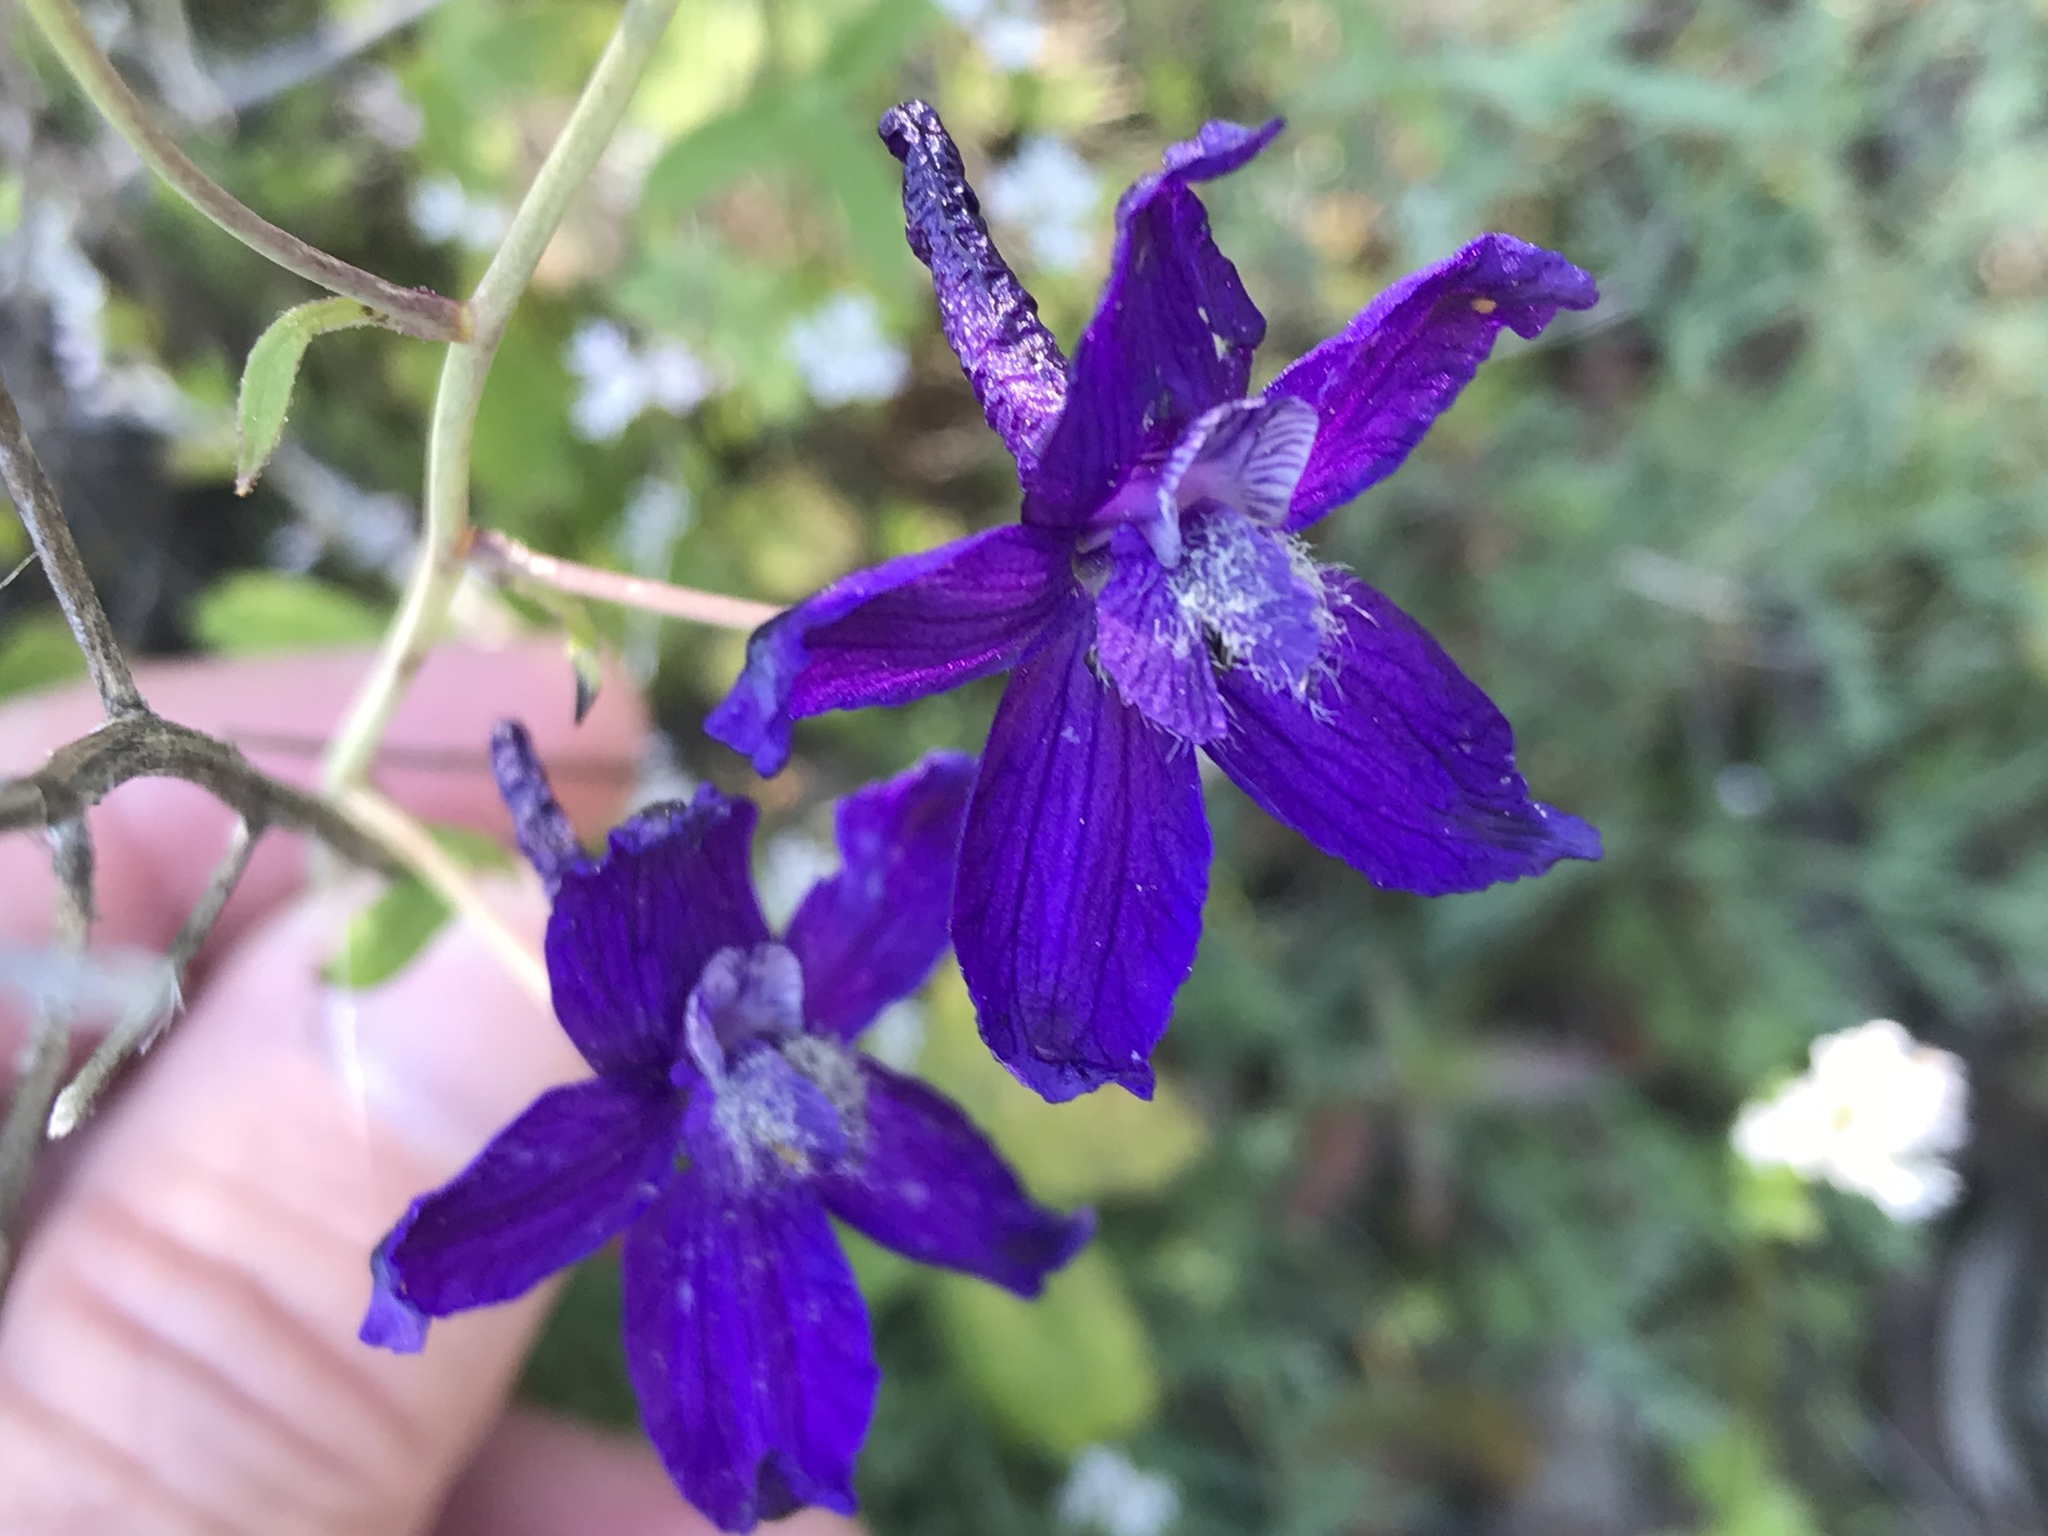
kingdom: Plantae
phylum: Tracheophyta
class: Magnoliopsida
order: Ranunculales
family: Ranunculaceae
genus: Delphinium
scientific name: Delphinium patens
